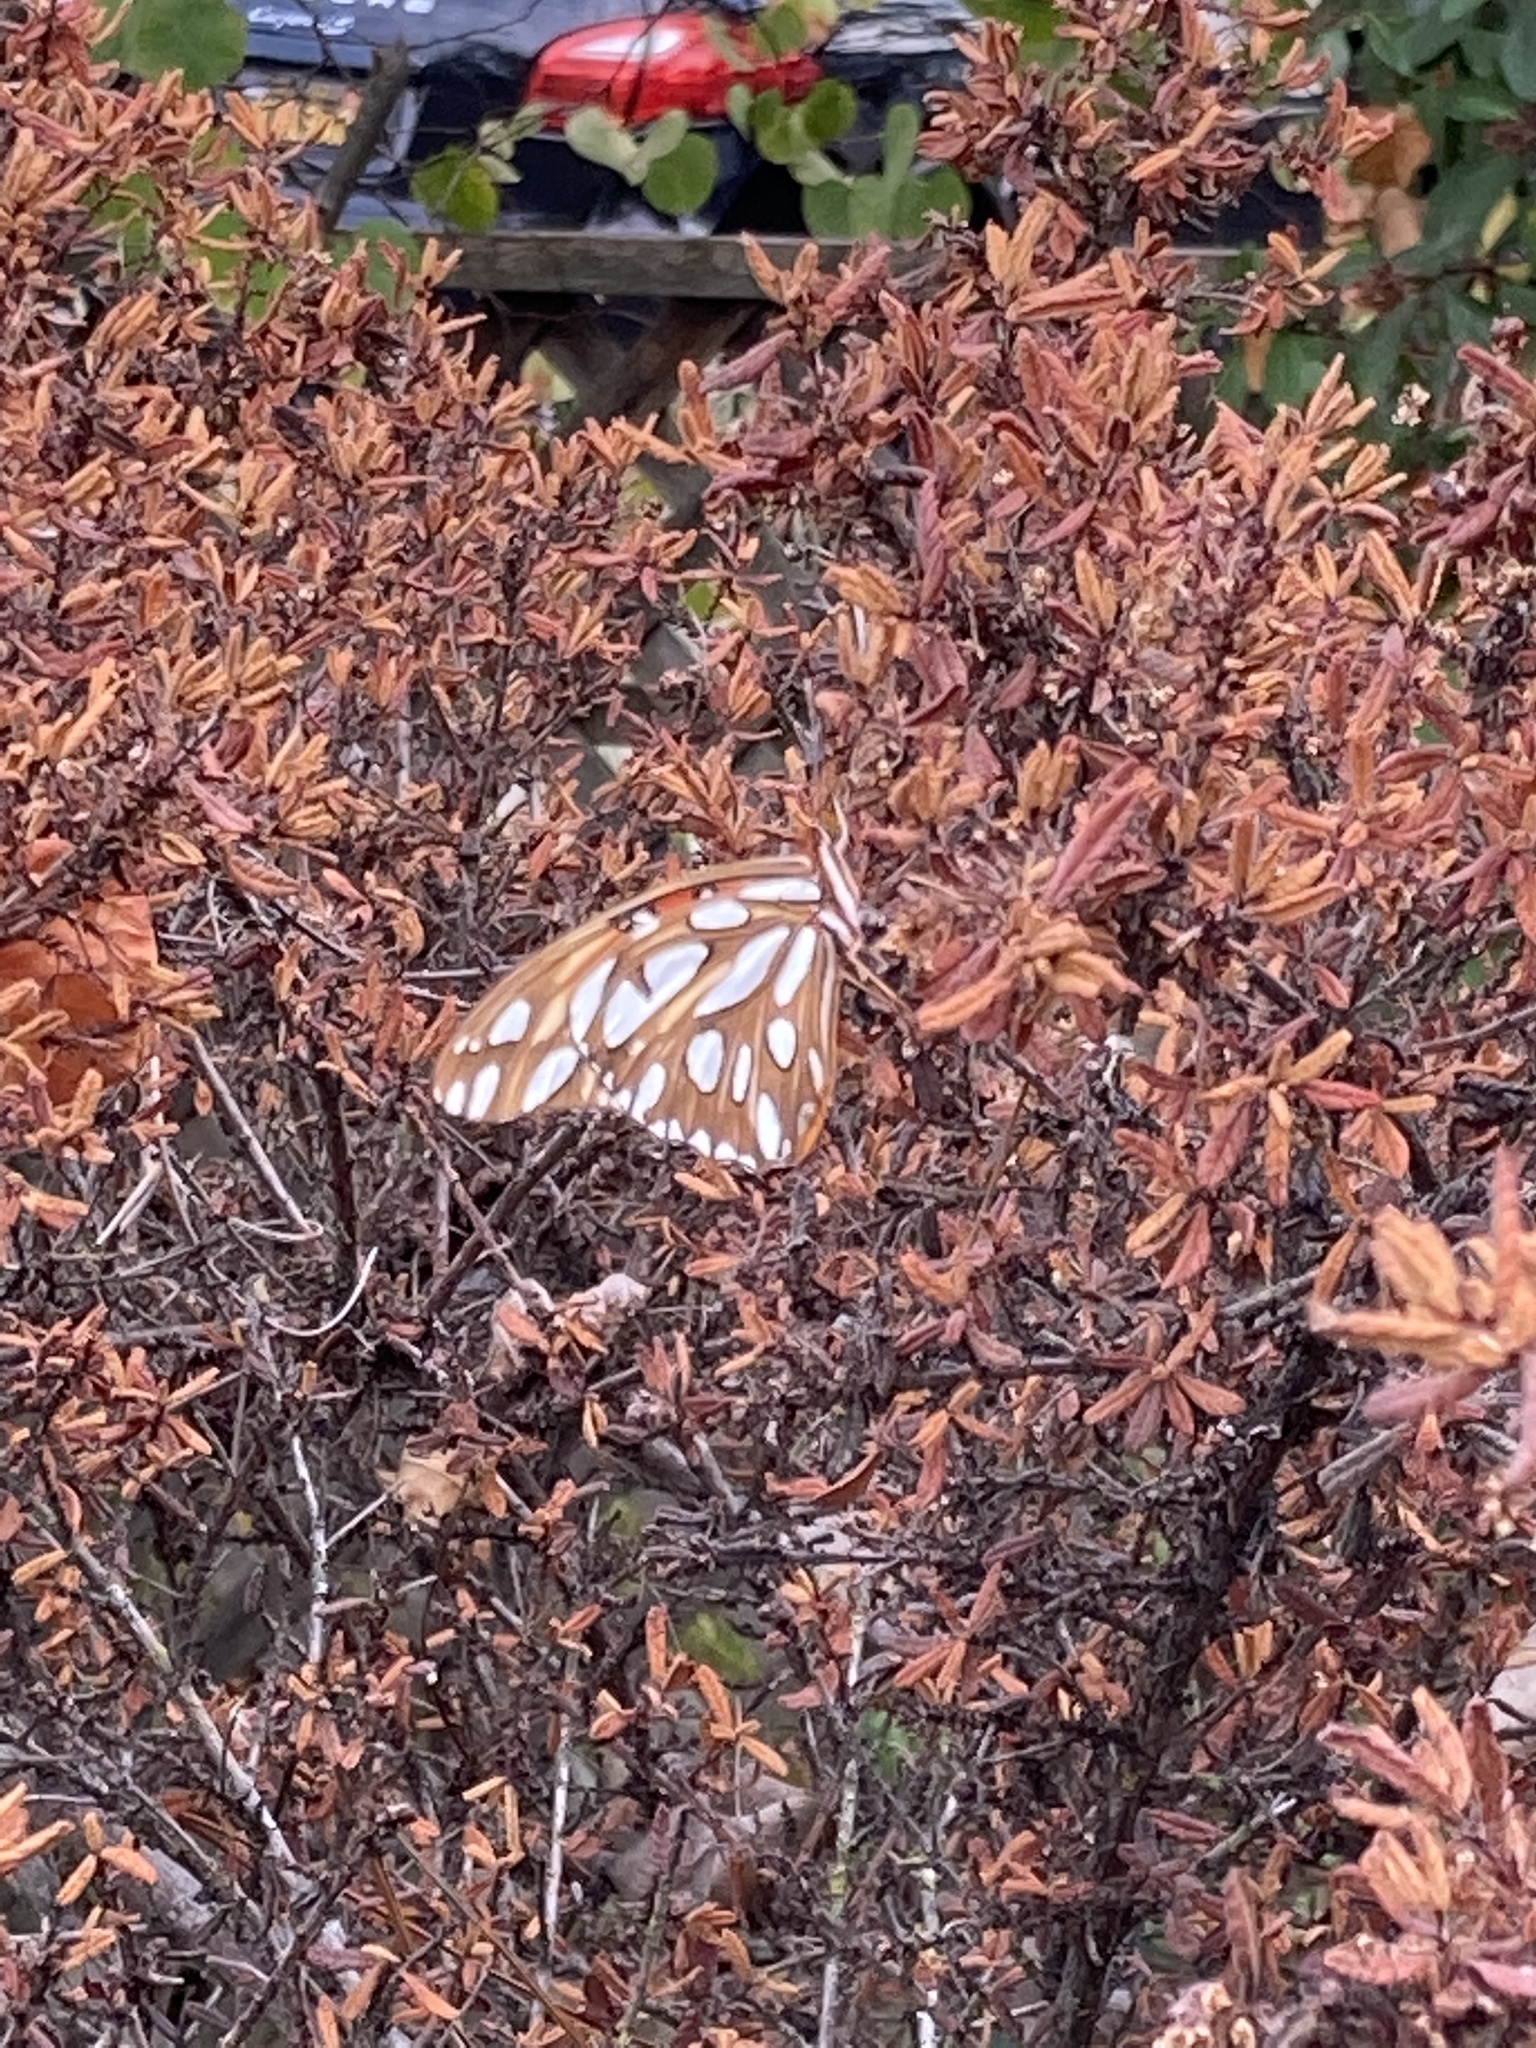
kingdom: Animalia
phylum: Arthropoda
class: Insecta
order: Lepidoptera
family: Nymphalidae
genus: Dione
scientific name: Dione vanillae
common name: Gulf fritillary
